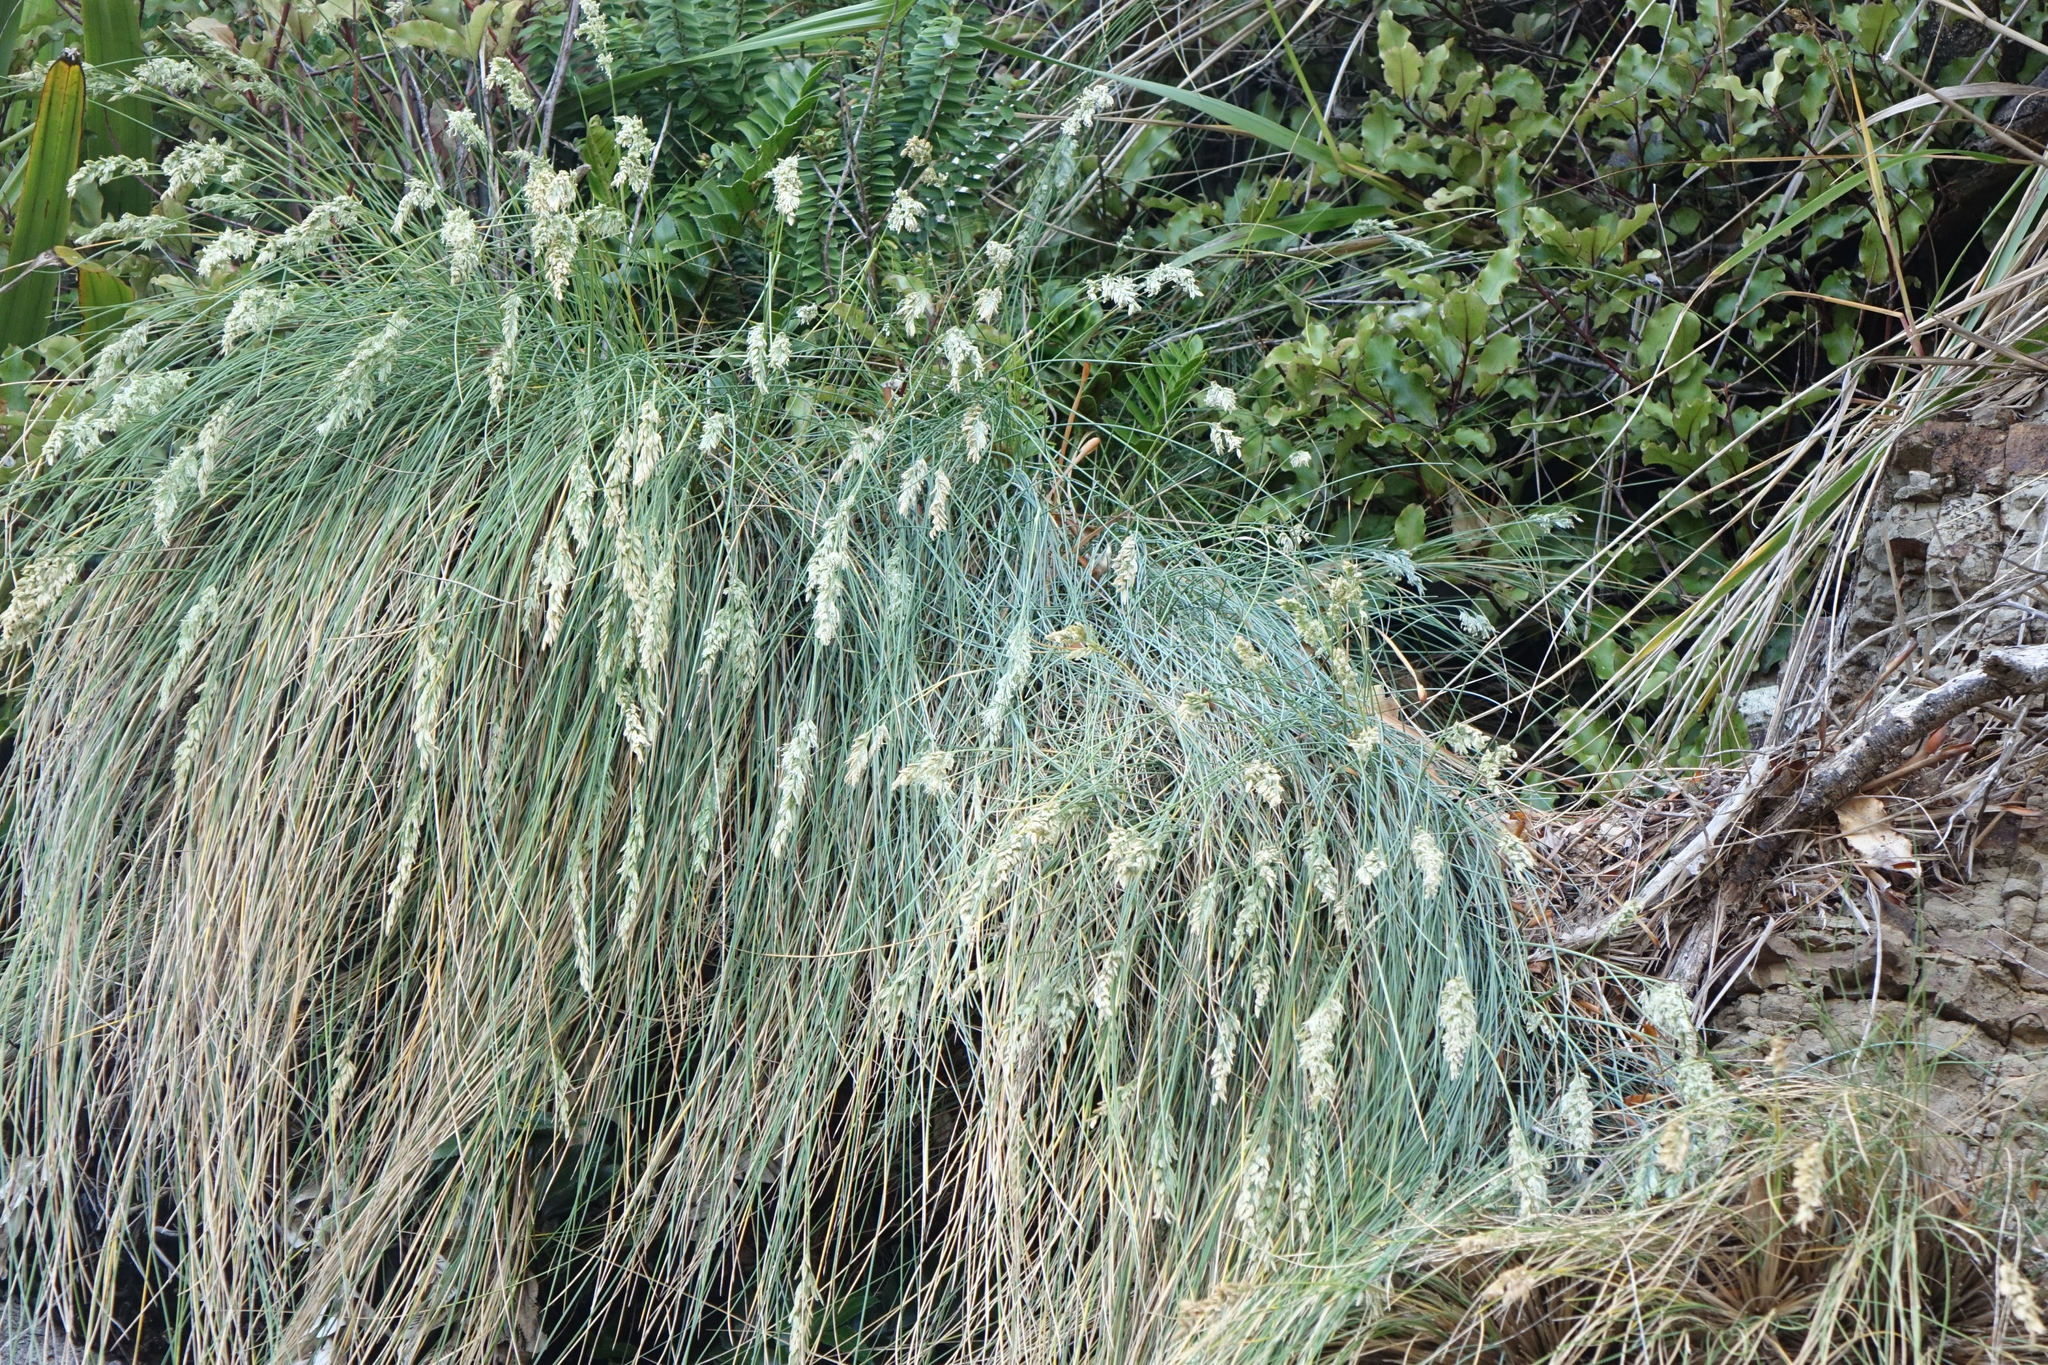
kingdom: Plantae
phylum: Tracheophyta
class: Liliopsida
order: Poales
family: Poaceae
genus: Poa
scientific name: Poa astonii
